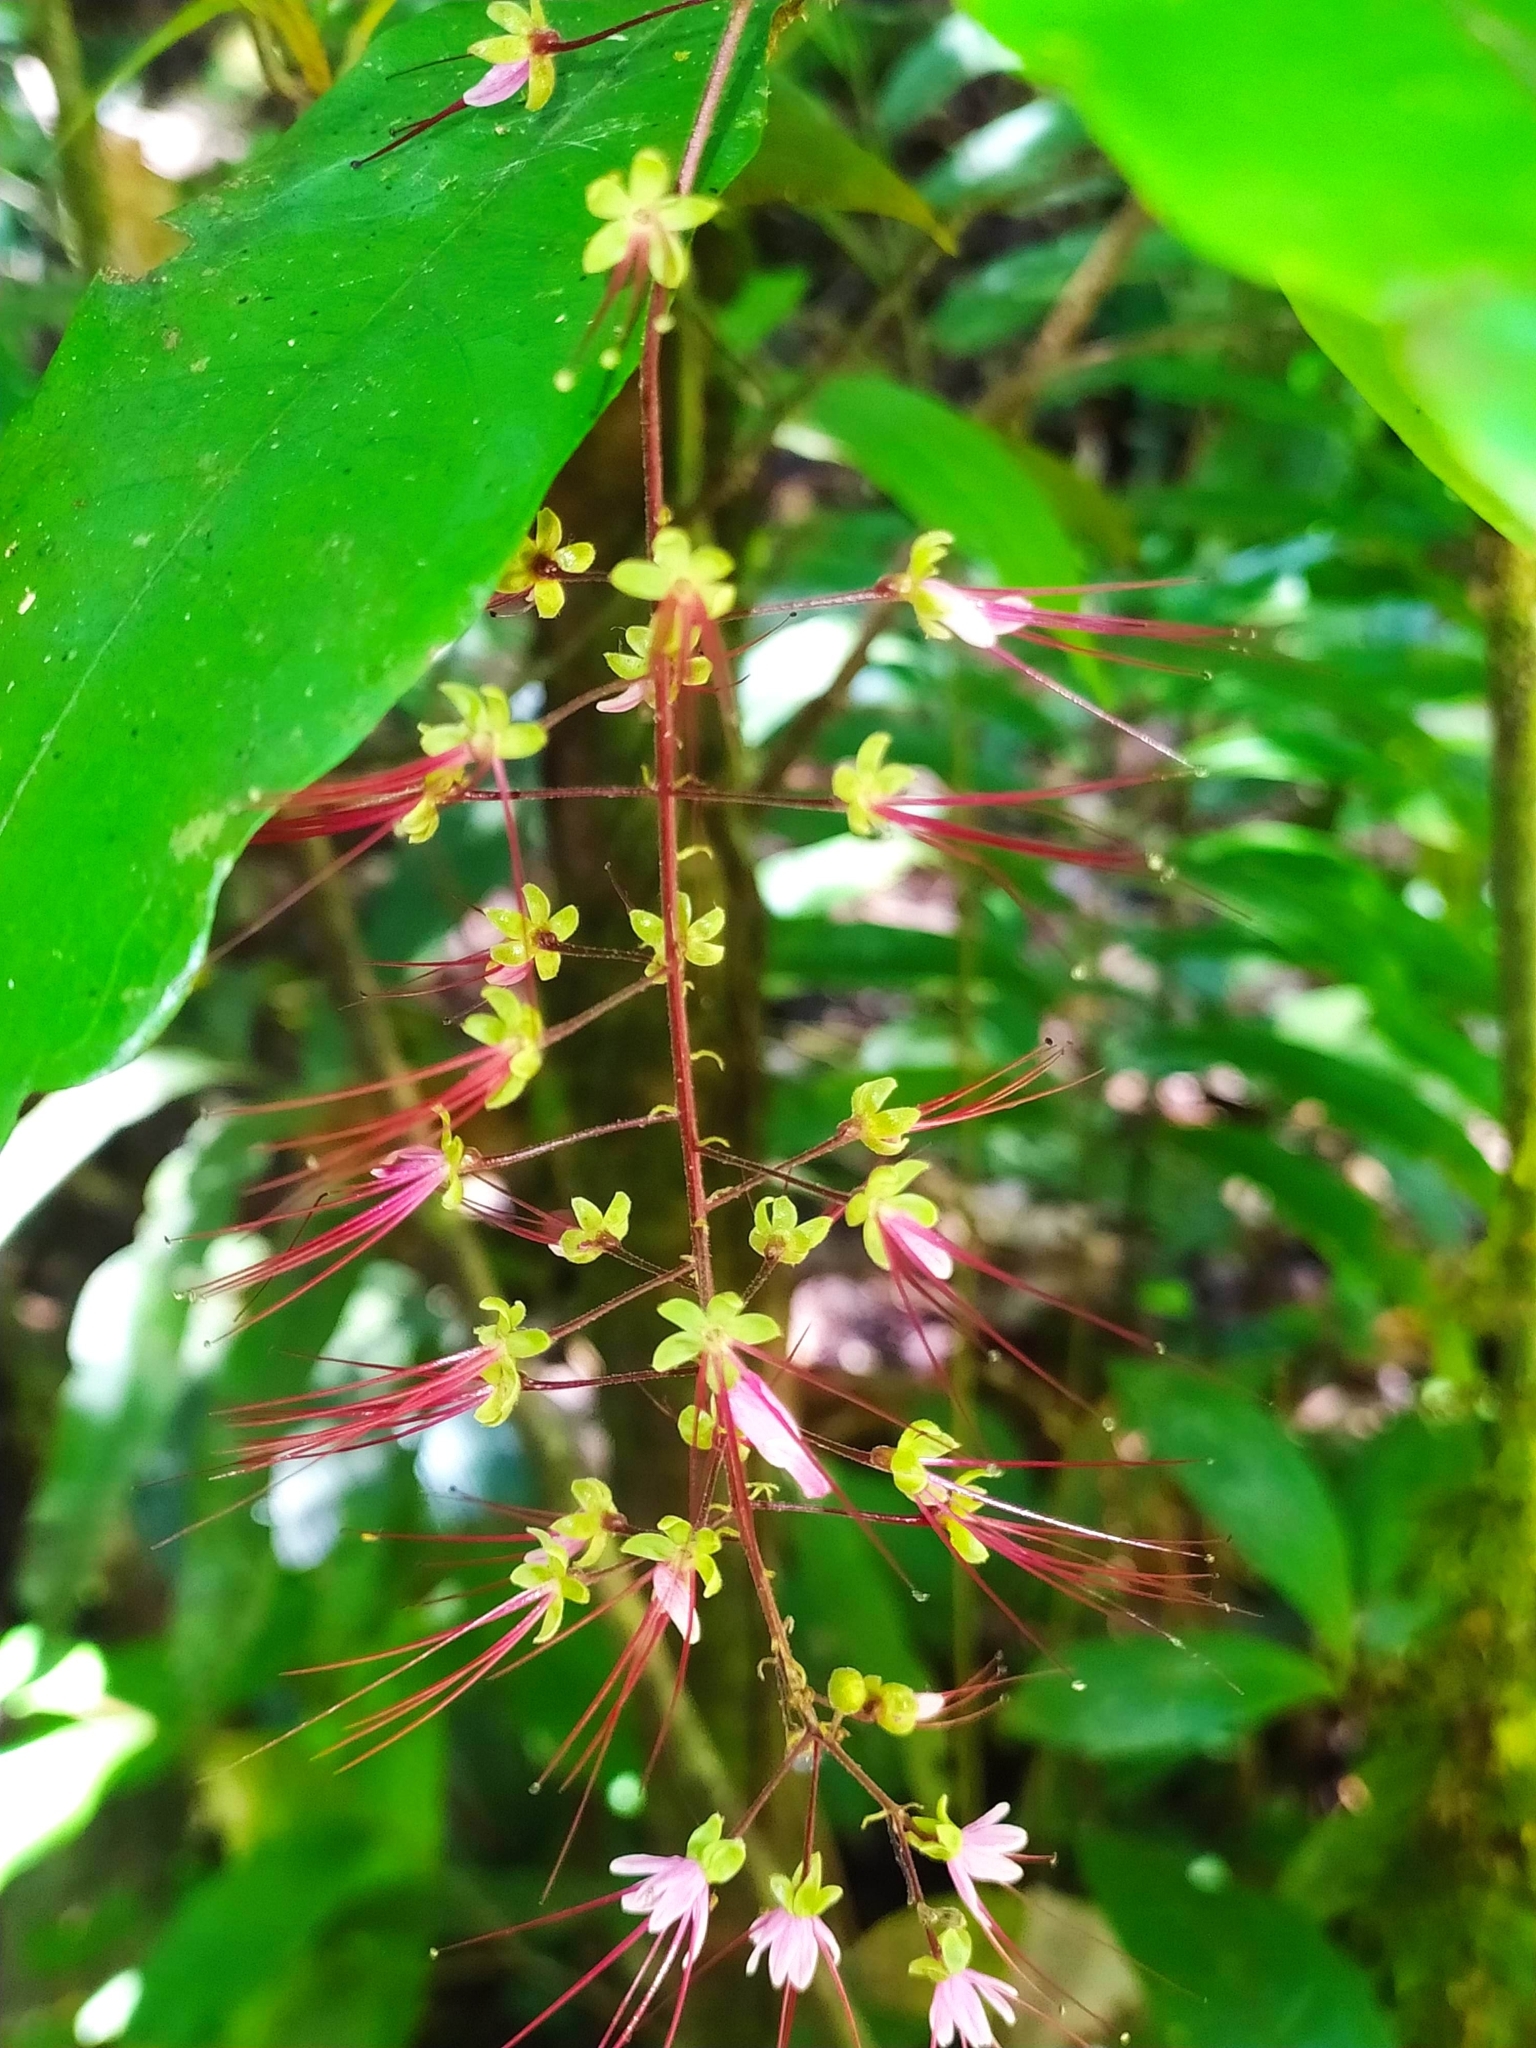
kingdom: Plantae
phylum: Tracheophyta
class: Magnoliopsida
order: Malpighiales
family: Chrysobalanaceae
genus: Hirtella
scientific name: Hirtella racemosa
